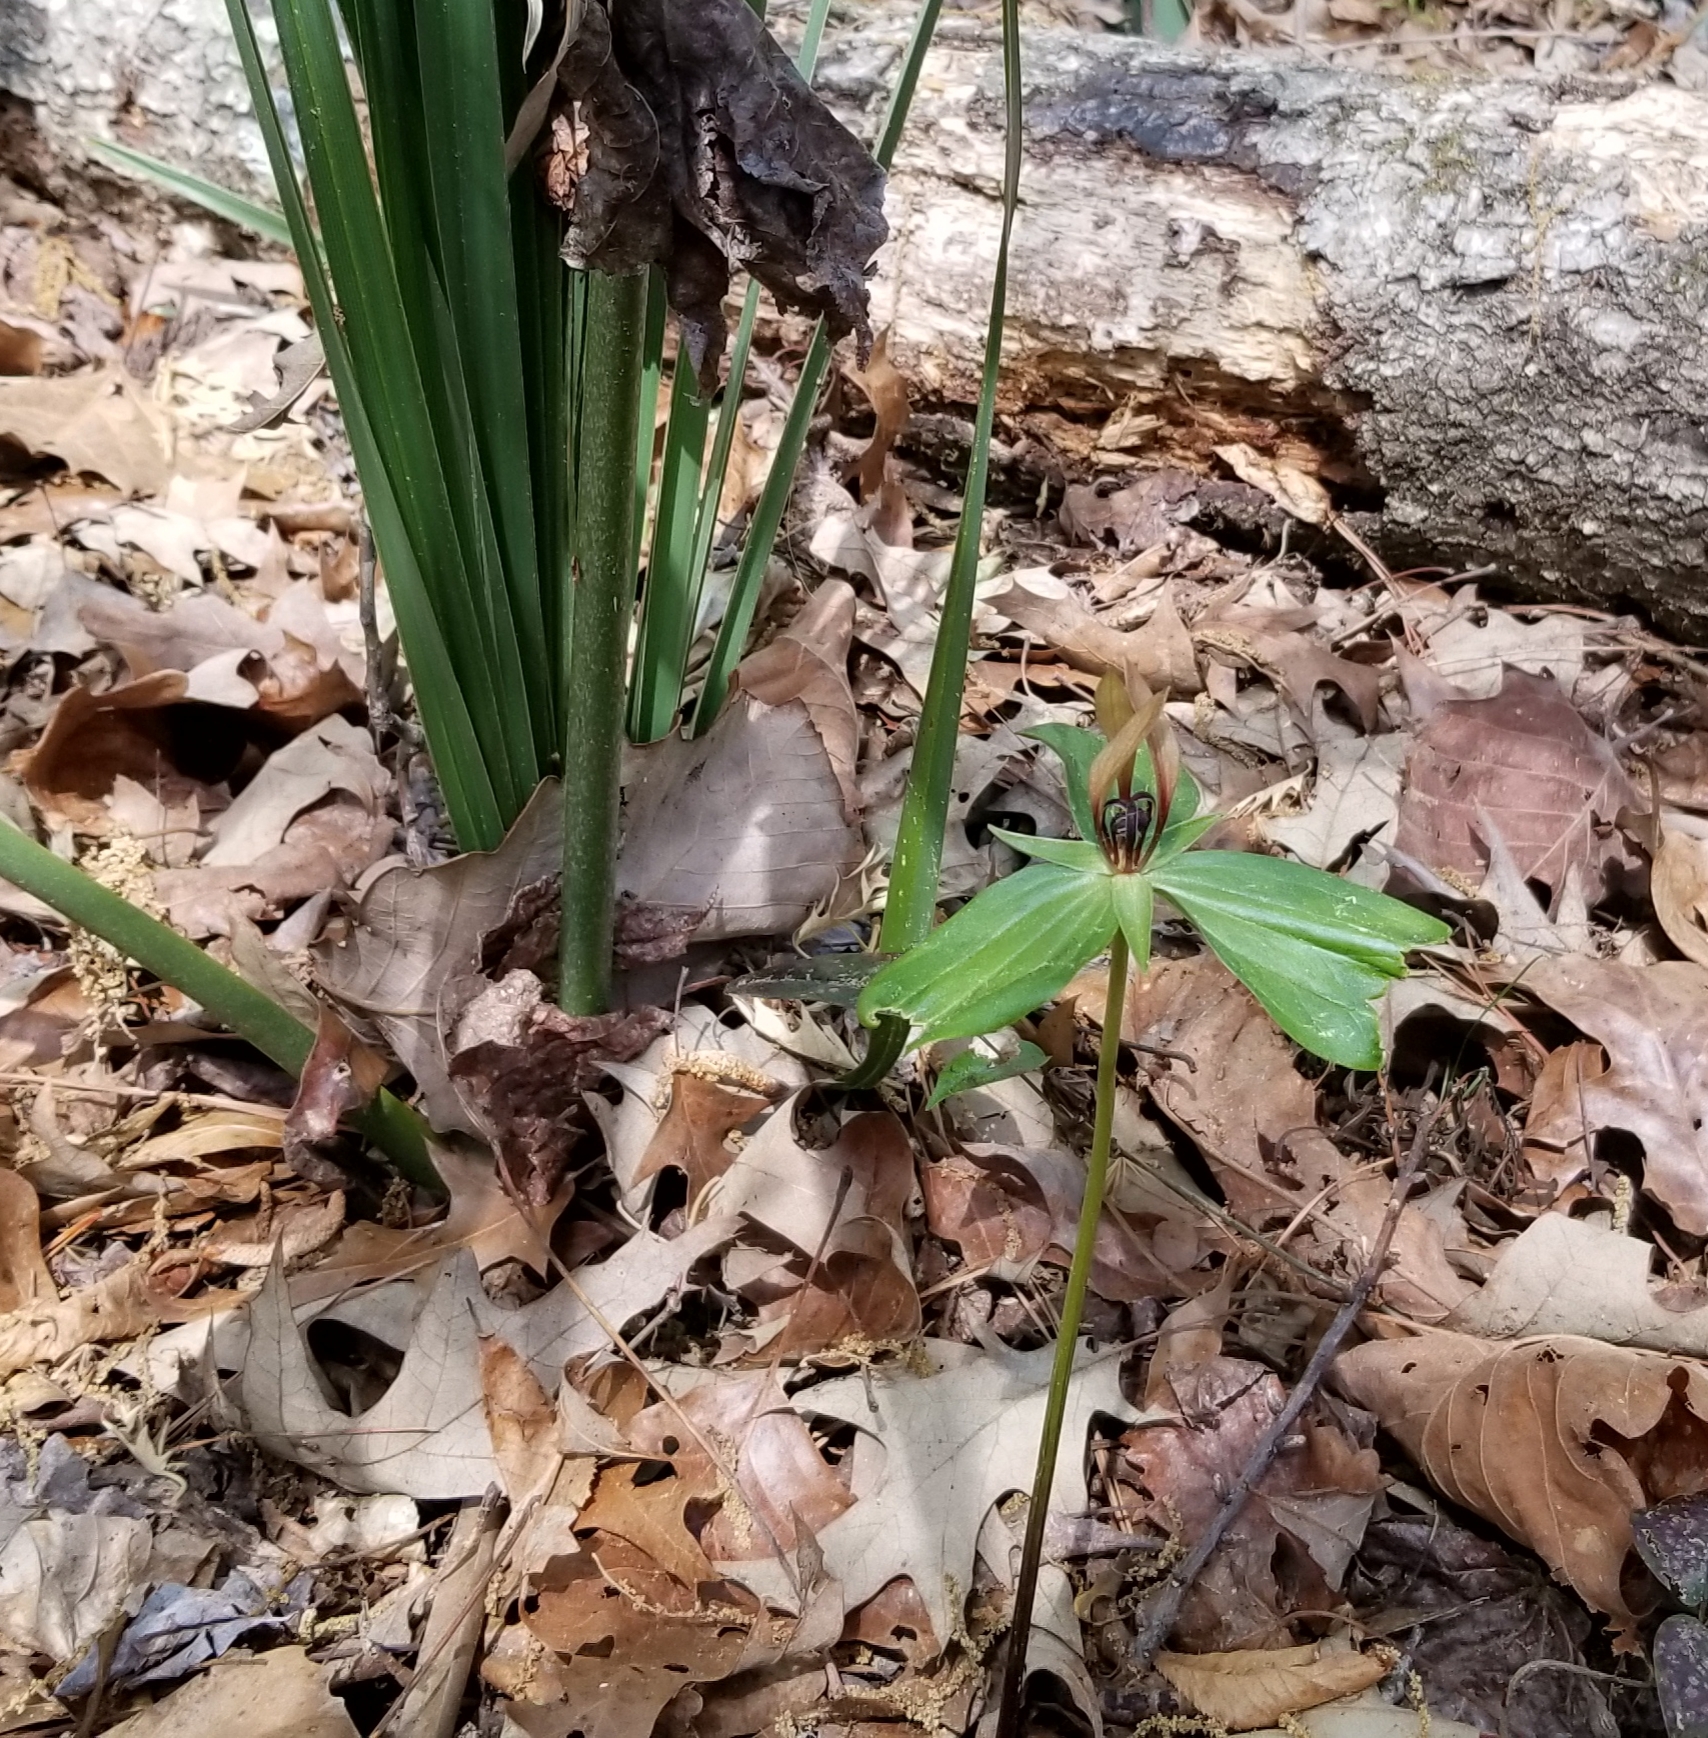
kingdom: Plantae
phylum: Tracheophyta
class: Liliopsida
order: Liliales
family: Melanthiaceae
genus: Trillium
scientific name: Trillium lancifolium
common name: Lance-leaved trillium
